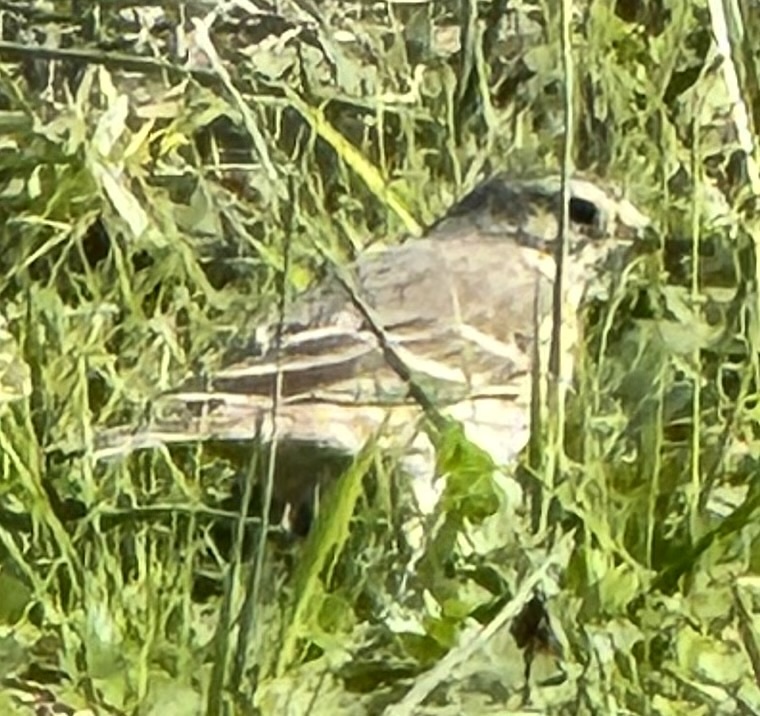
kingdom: Animalia
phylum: Chordata
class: Aves
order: Passeriformes
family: Motacillidae
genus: Anthus
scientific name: Anthus rubescens
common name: Buff-bellied pipit
